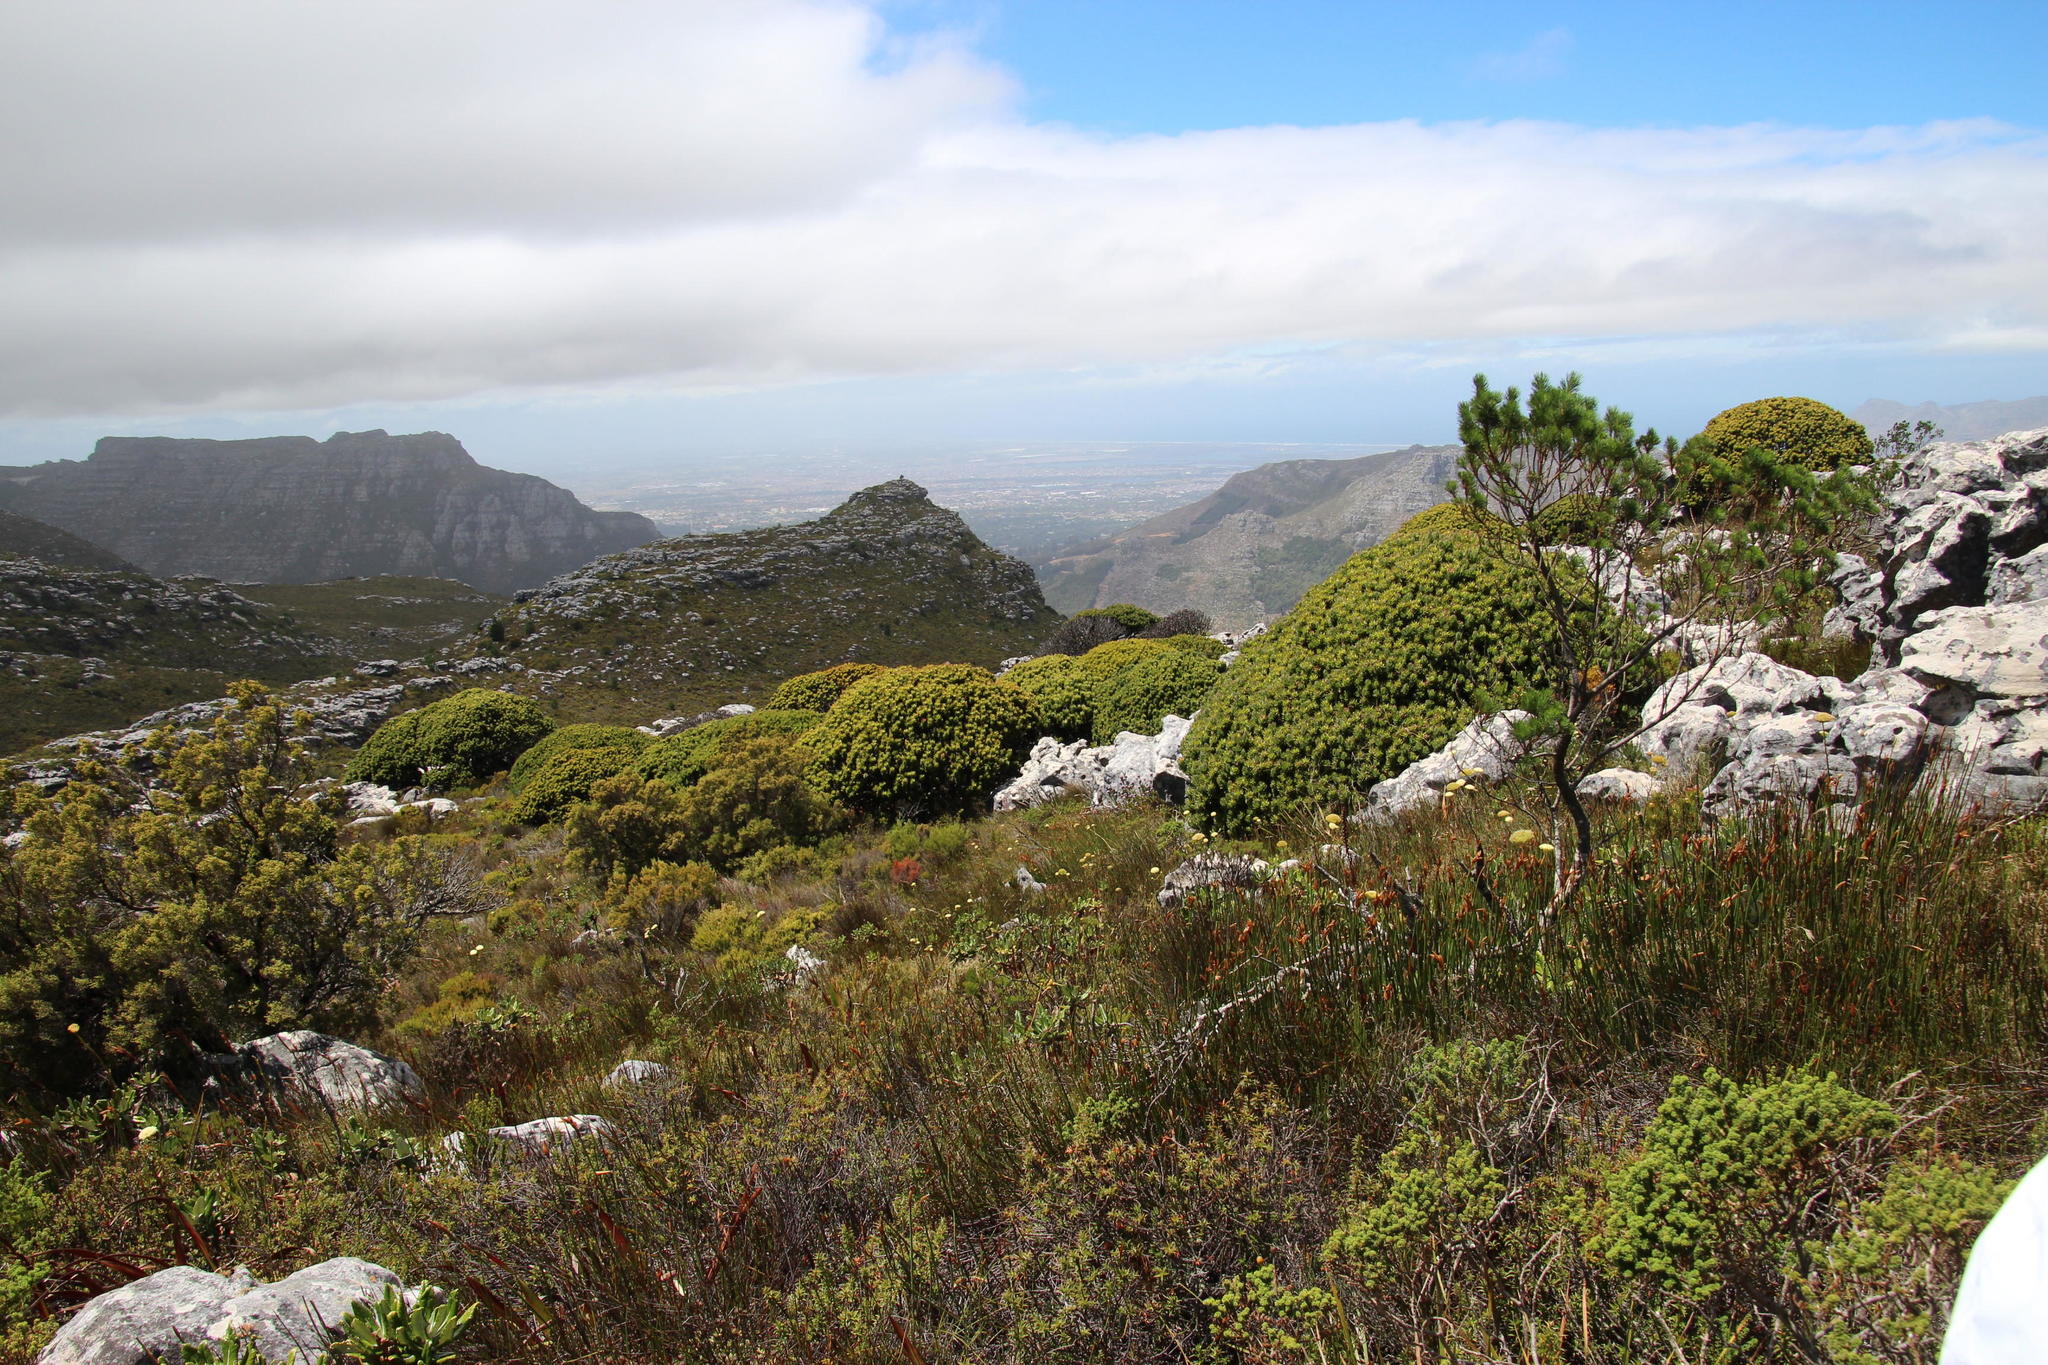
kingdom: Plantae
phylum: Tracheophyta
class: Magnoliopsida
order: Proteales
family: Proteaceae
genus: Mimetes
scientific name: Mimetes fimbriifolius
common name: Fringed bottlebrush
